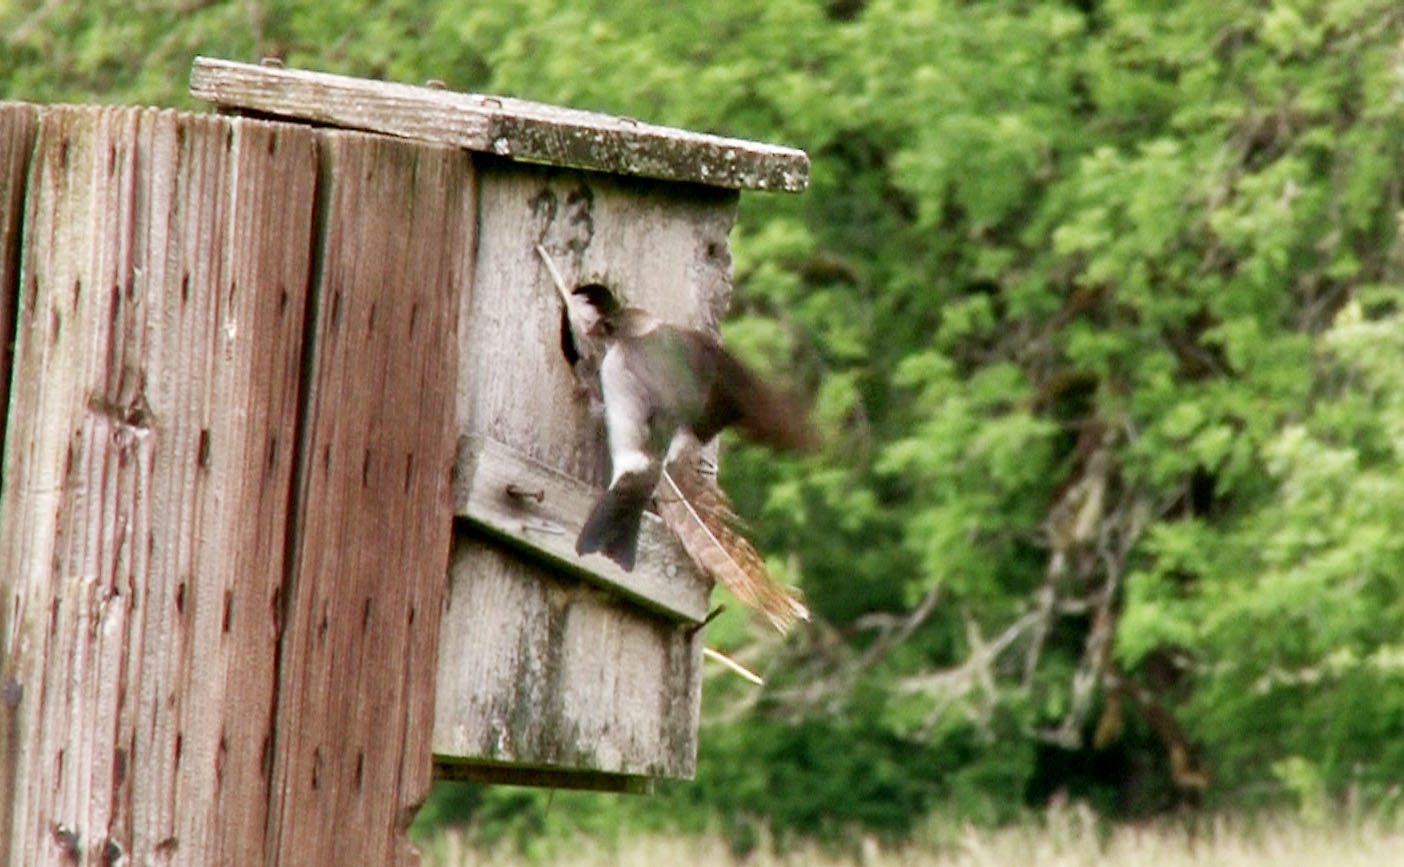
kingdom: Animalia
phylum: Chordata
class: Aves
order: Passeriformes
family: Hirundinidae
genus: Tachycineta
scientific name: Tachycineta thalassina
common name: Violet-green swallow
